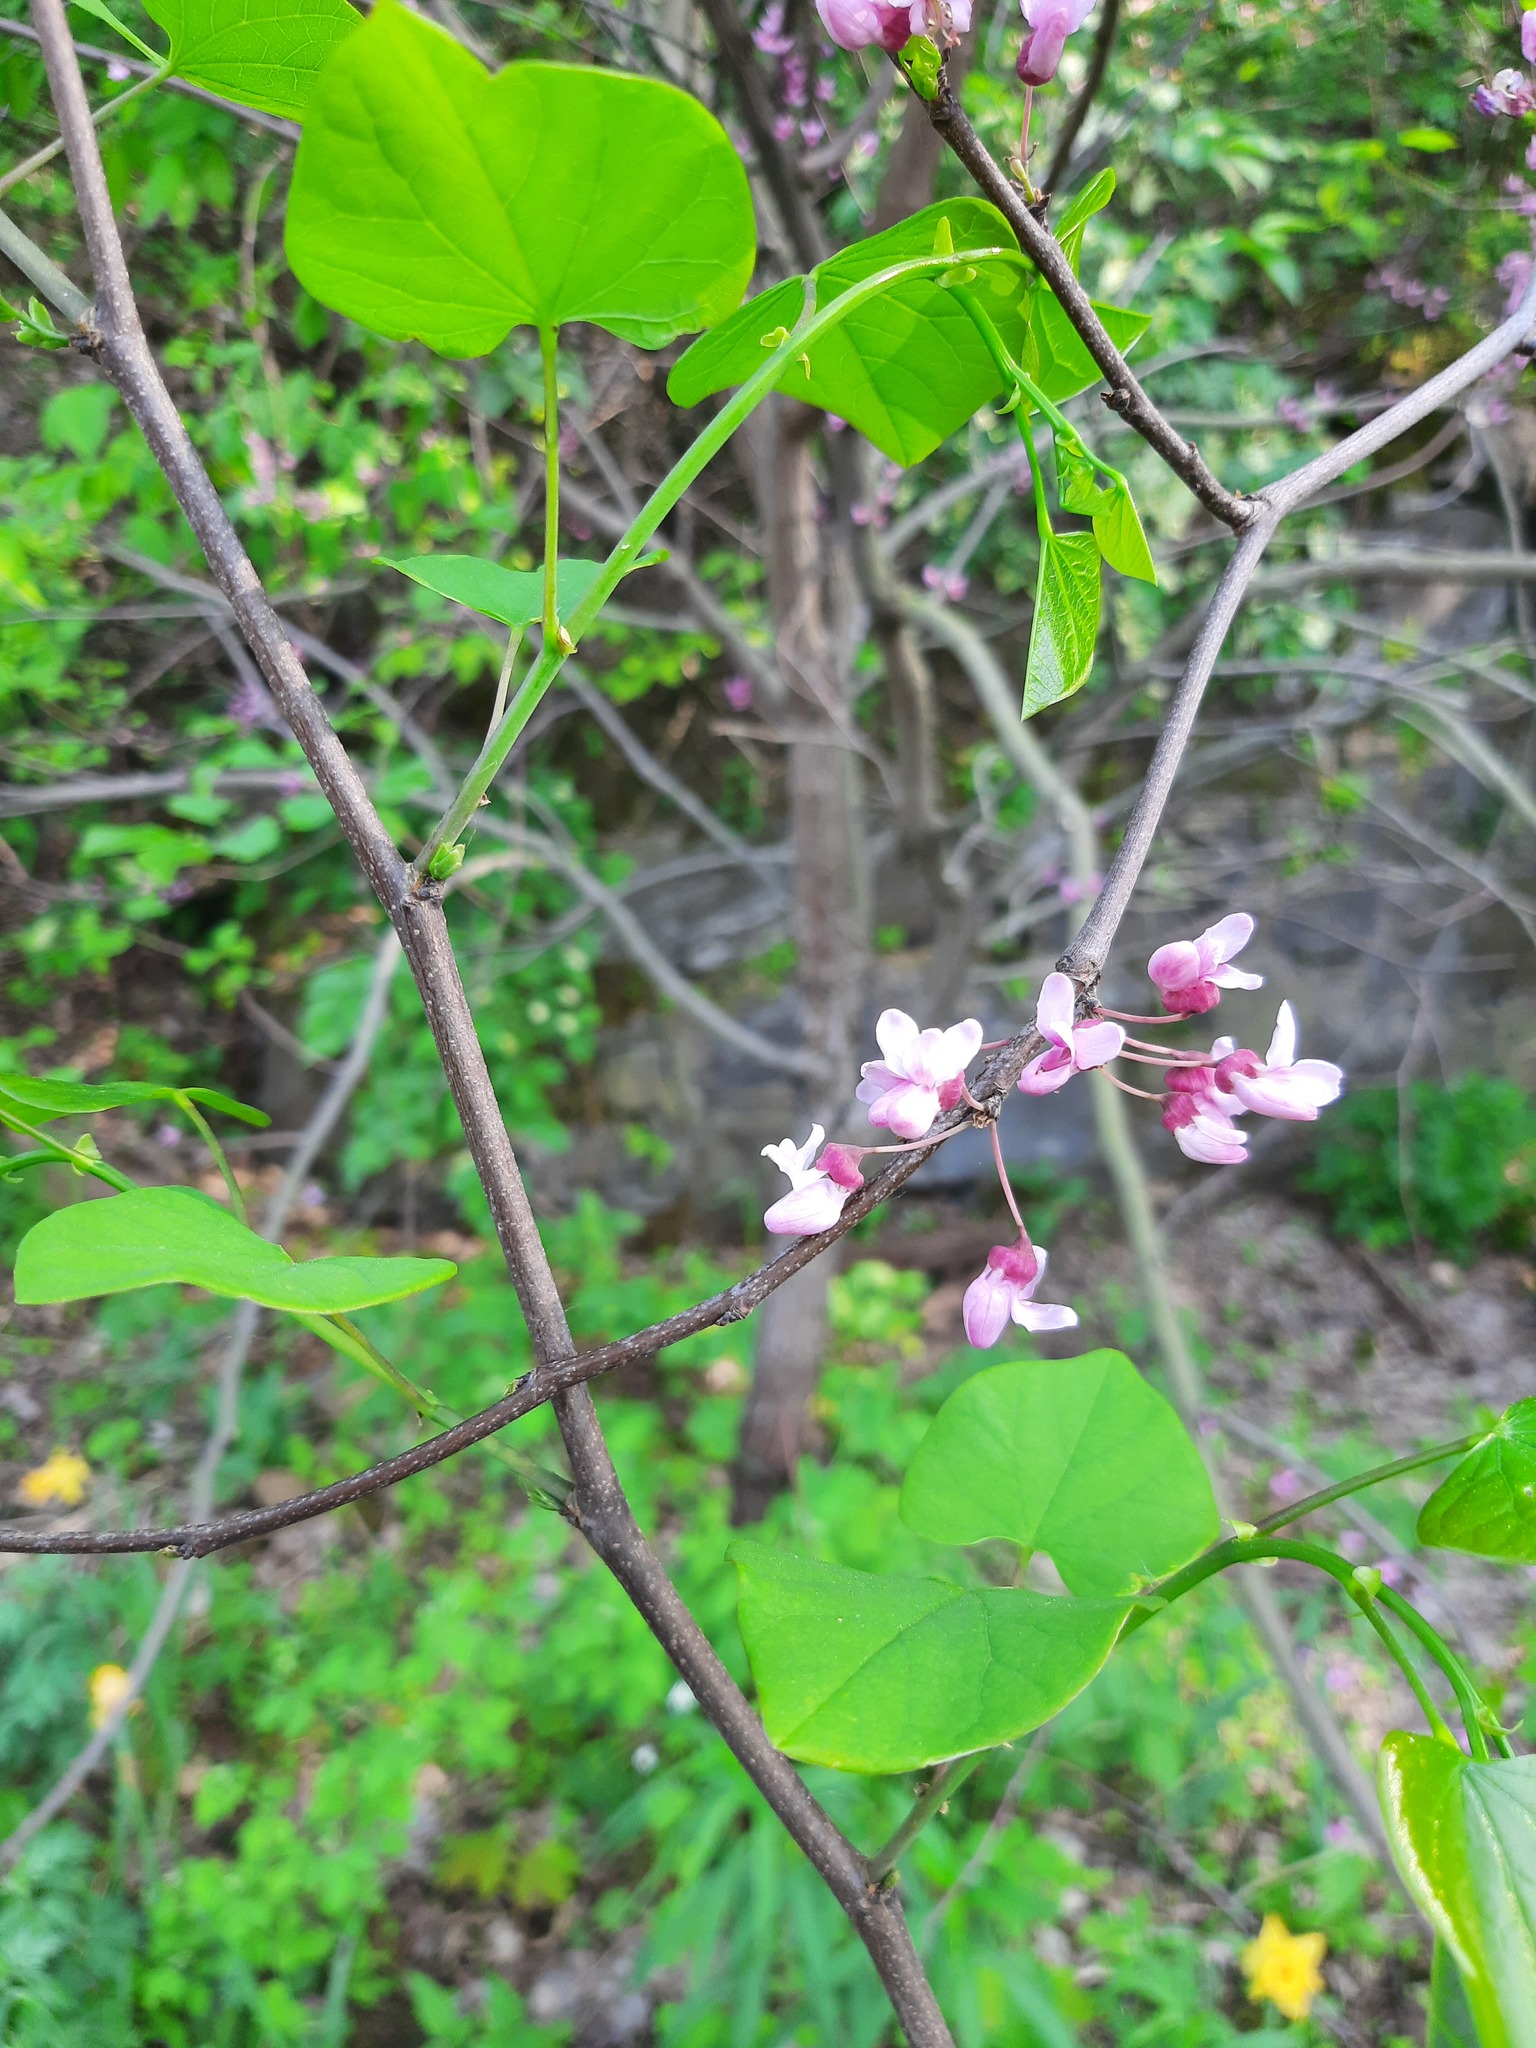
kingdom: Plantae
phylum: Tracheophyta
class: Magnoliopsida
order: Fabales
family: Fabaceae
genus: Cercis
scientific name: Cercis canadensis
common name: Eastern redbud
